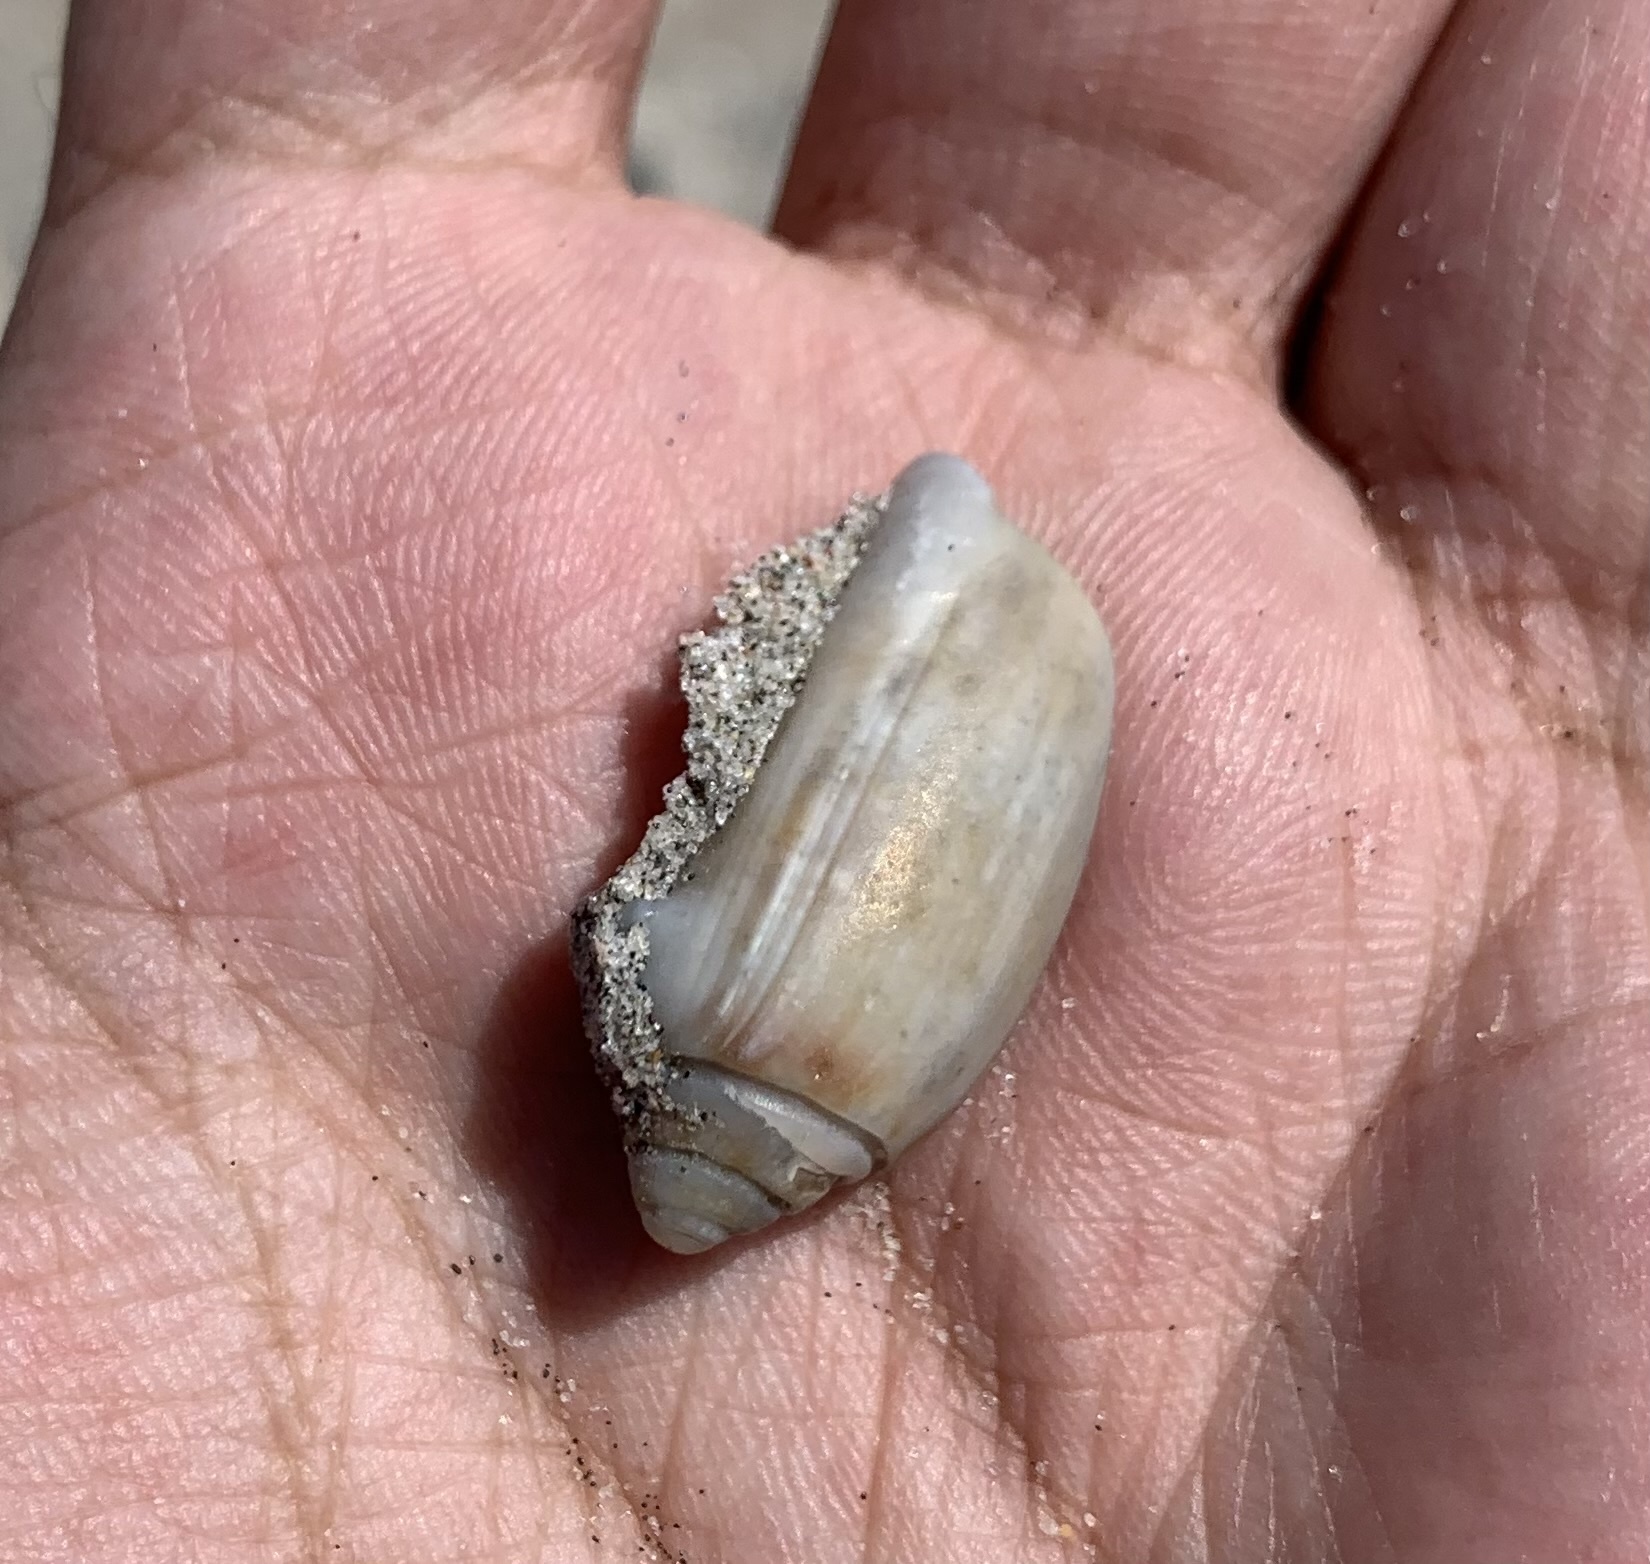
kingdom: Animalia
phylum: Mollusca
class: Gastropoda
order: Neogastropoda
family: Olividae
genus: Oliva
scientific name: Oliva sayana
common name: Lettered olive
